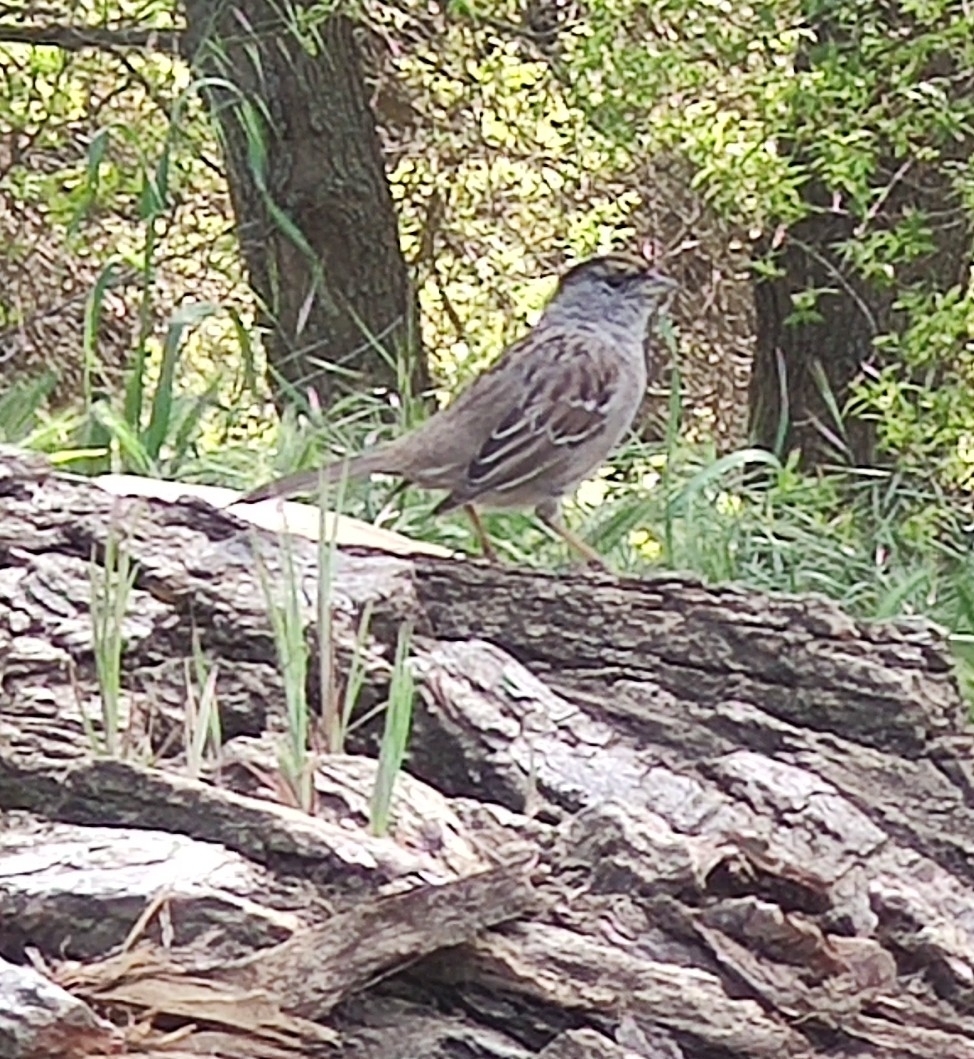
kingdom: Animalia
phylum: Chordata
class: Aves
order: Passeriformes
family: Passerellidae
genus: Zonotrichia
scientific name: Zonotrichia atricapilla
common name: Golden-crowned sparrow
